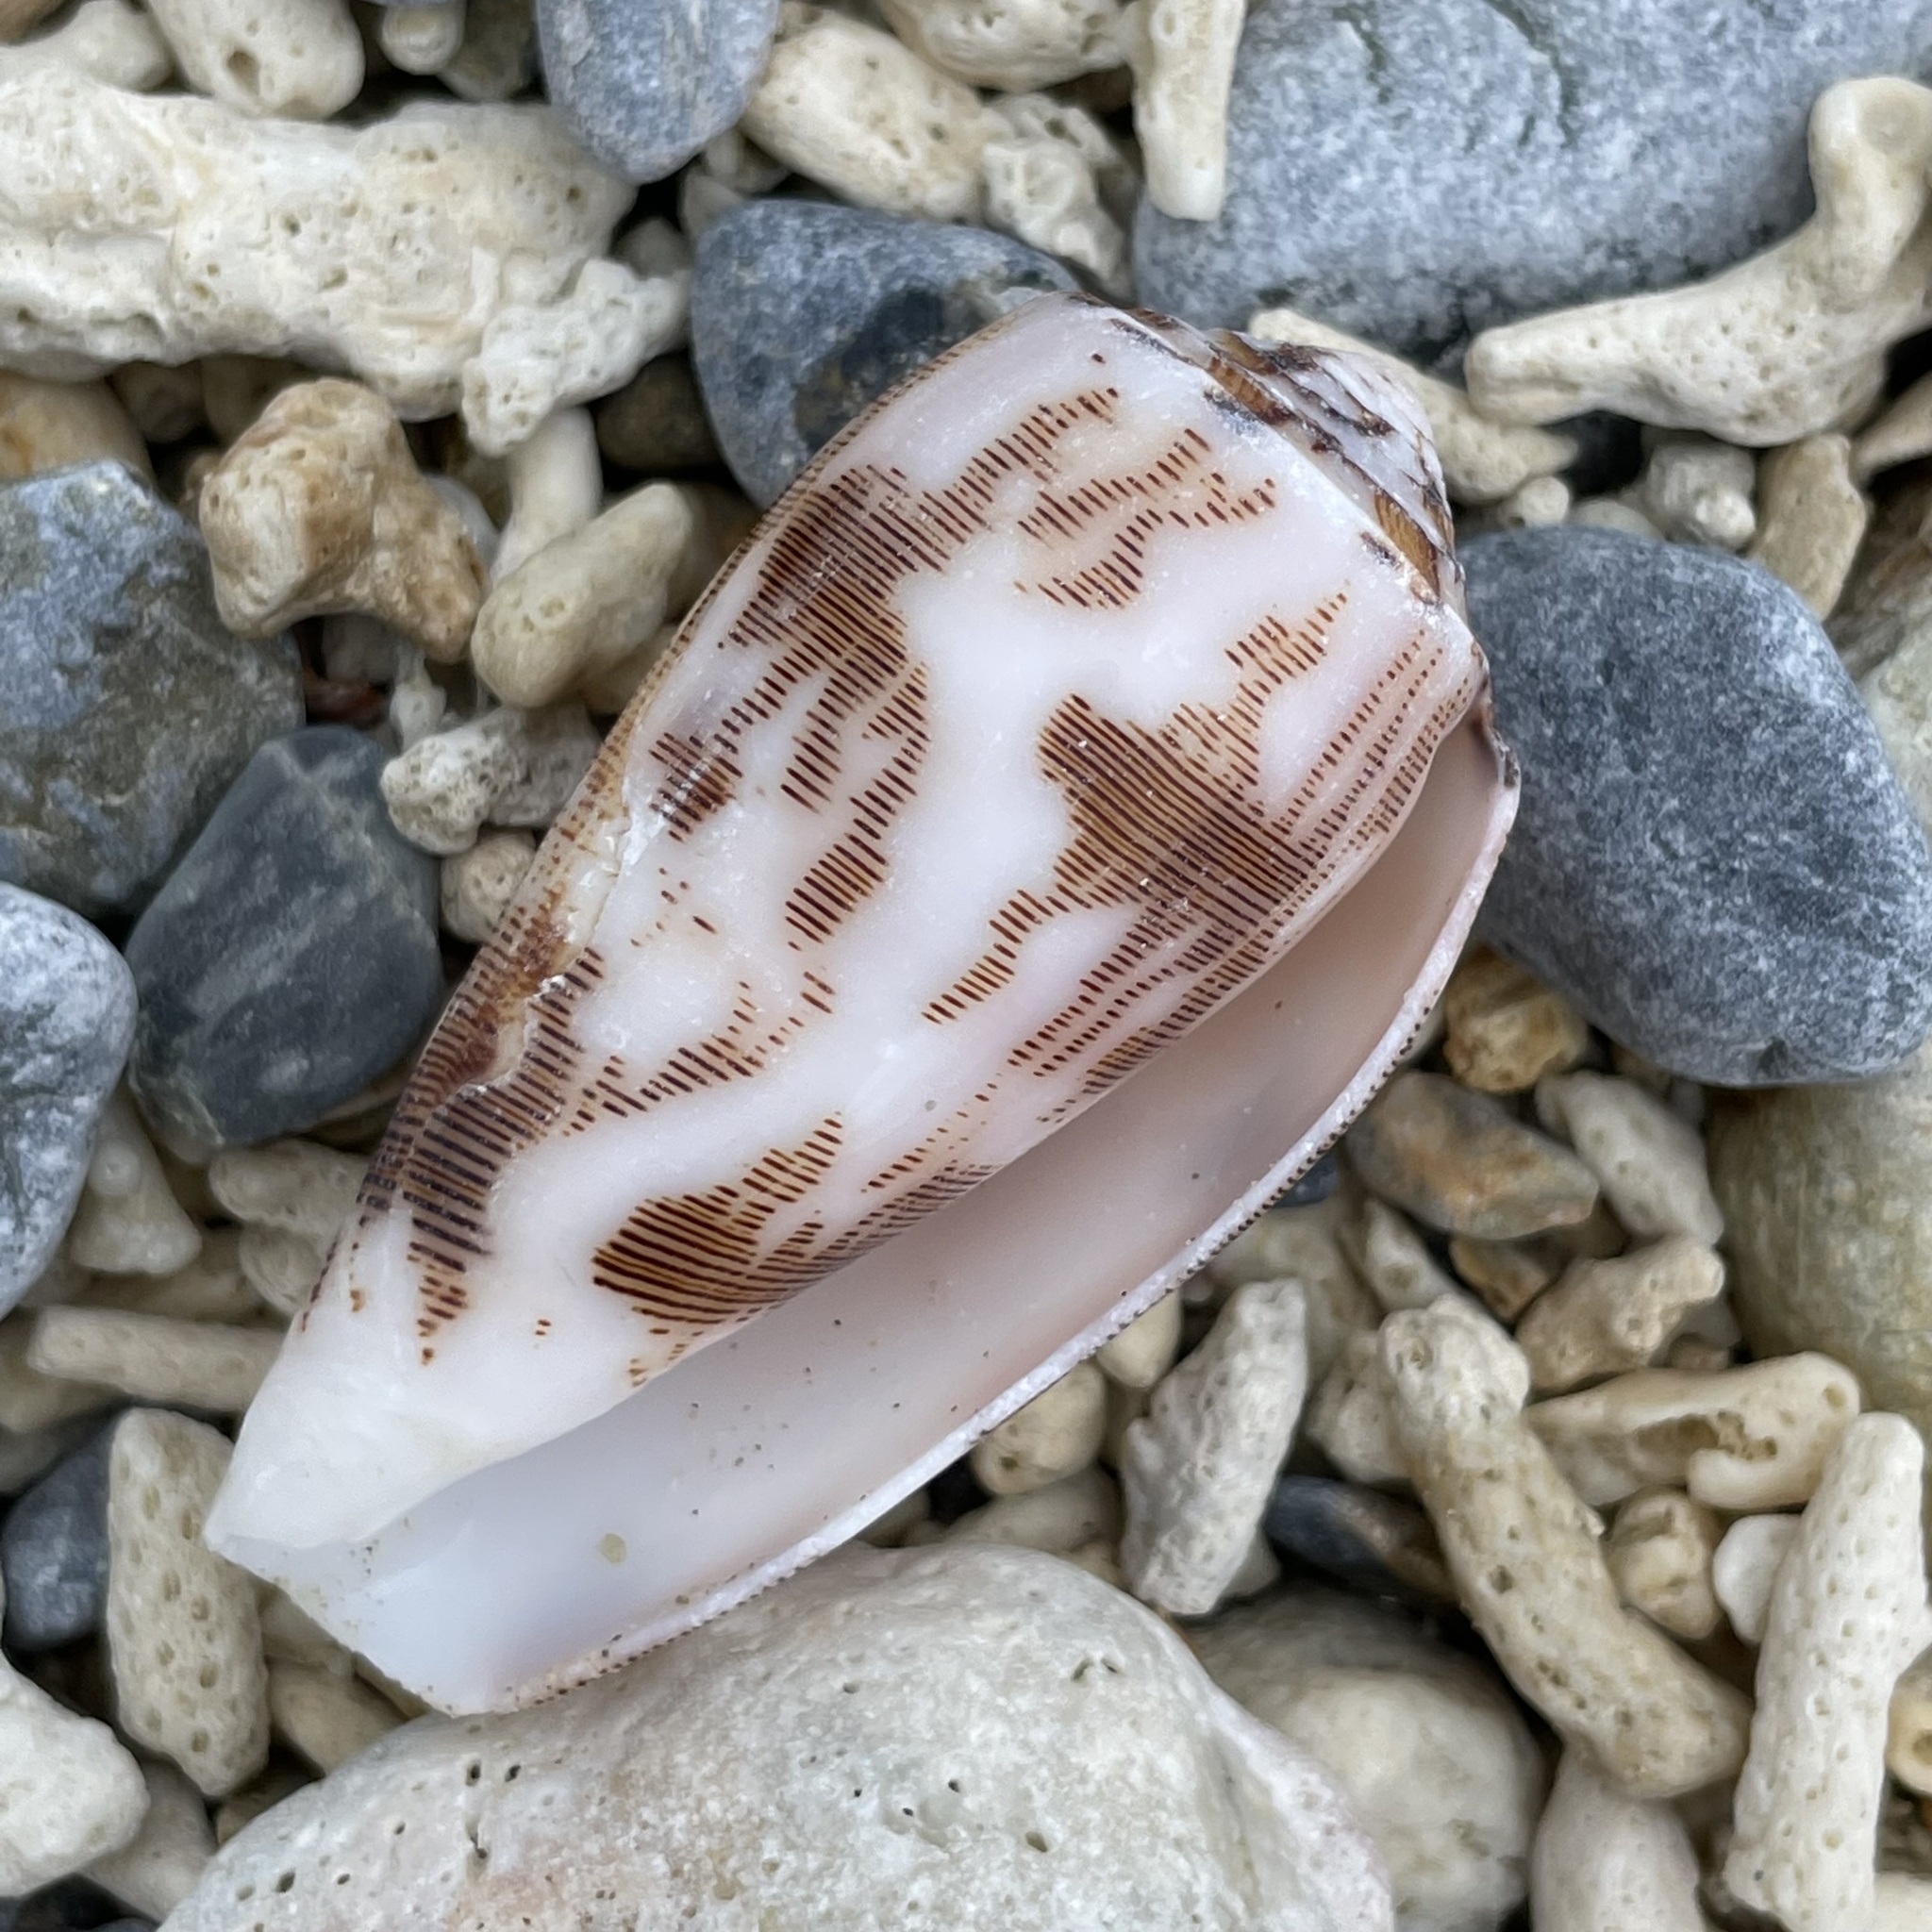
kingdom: Animalia
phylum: Mollusca
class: Gastropoda
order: Neogastropoda
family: Conidae
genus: Conus
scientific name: Conus striatus
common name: Striated cone
